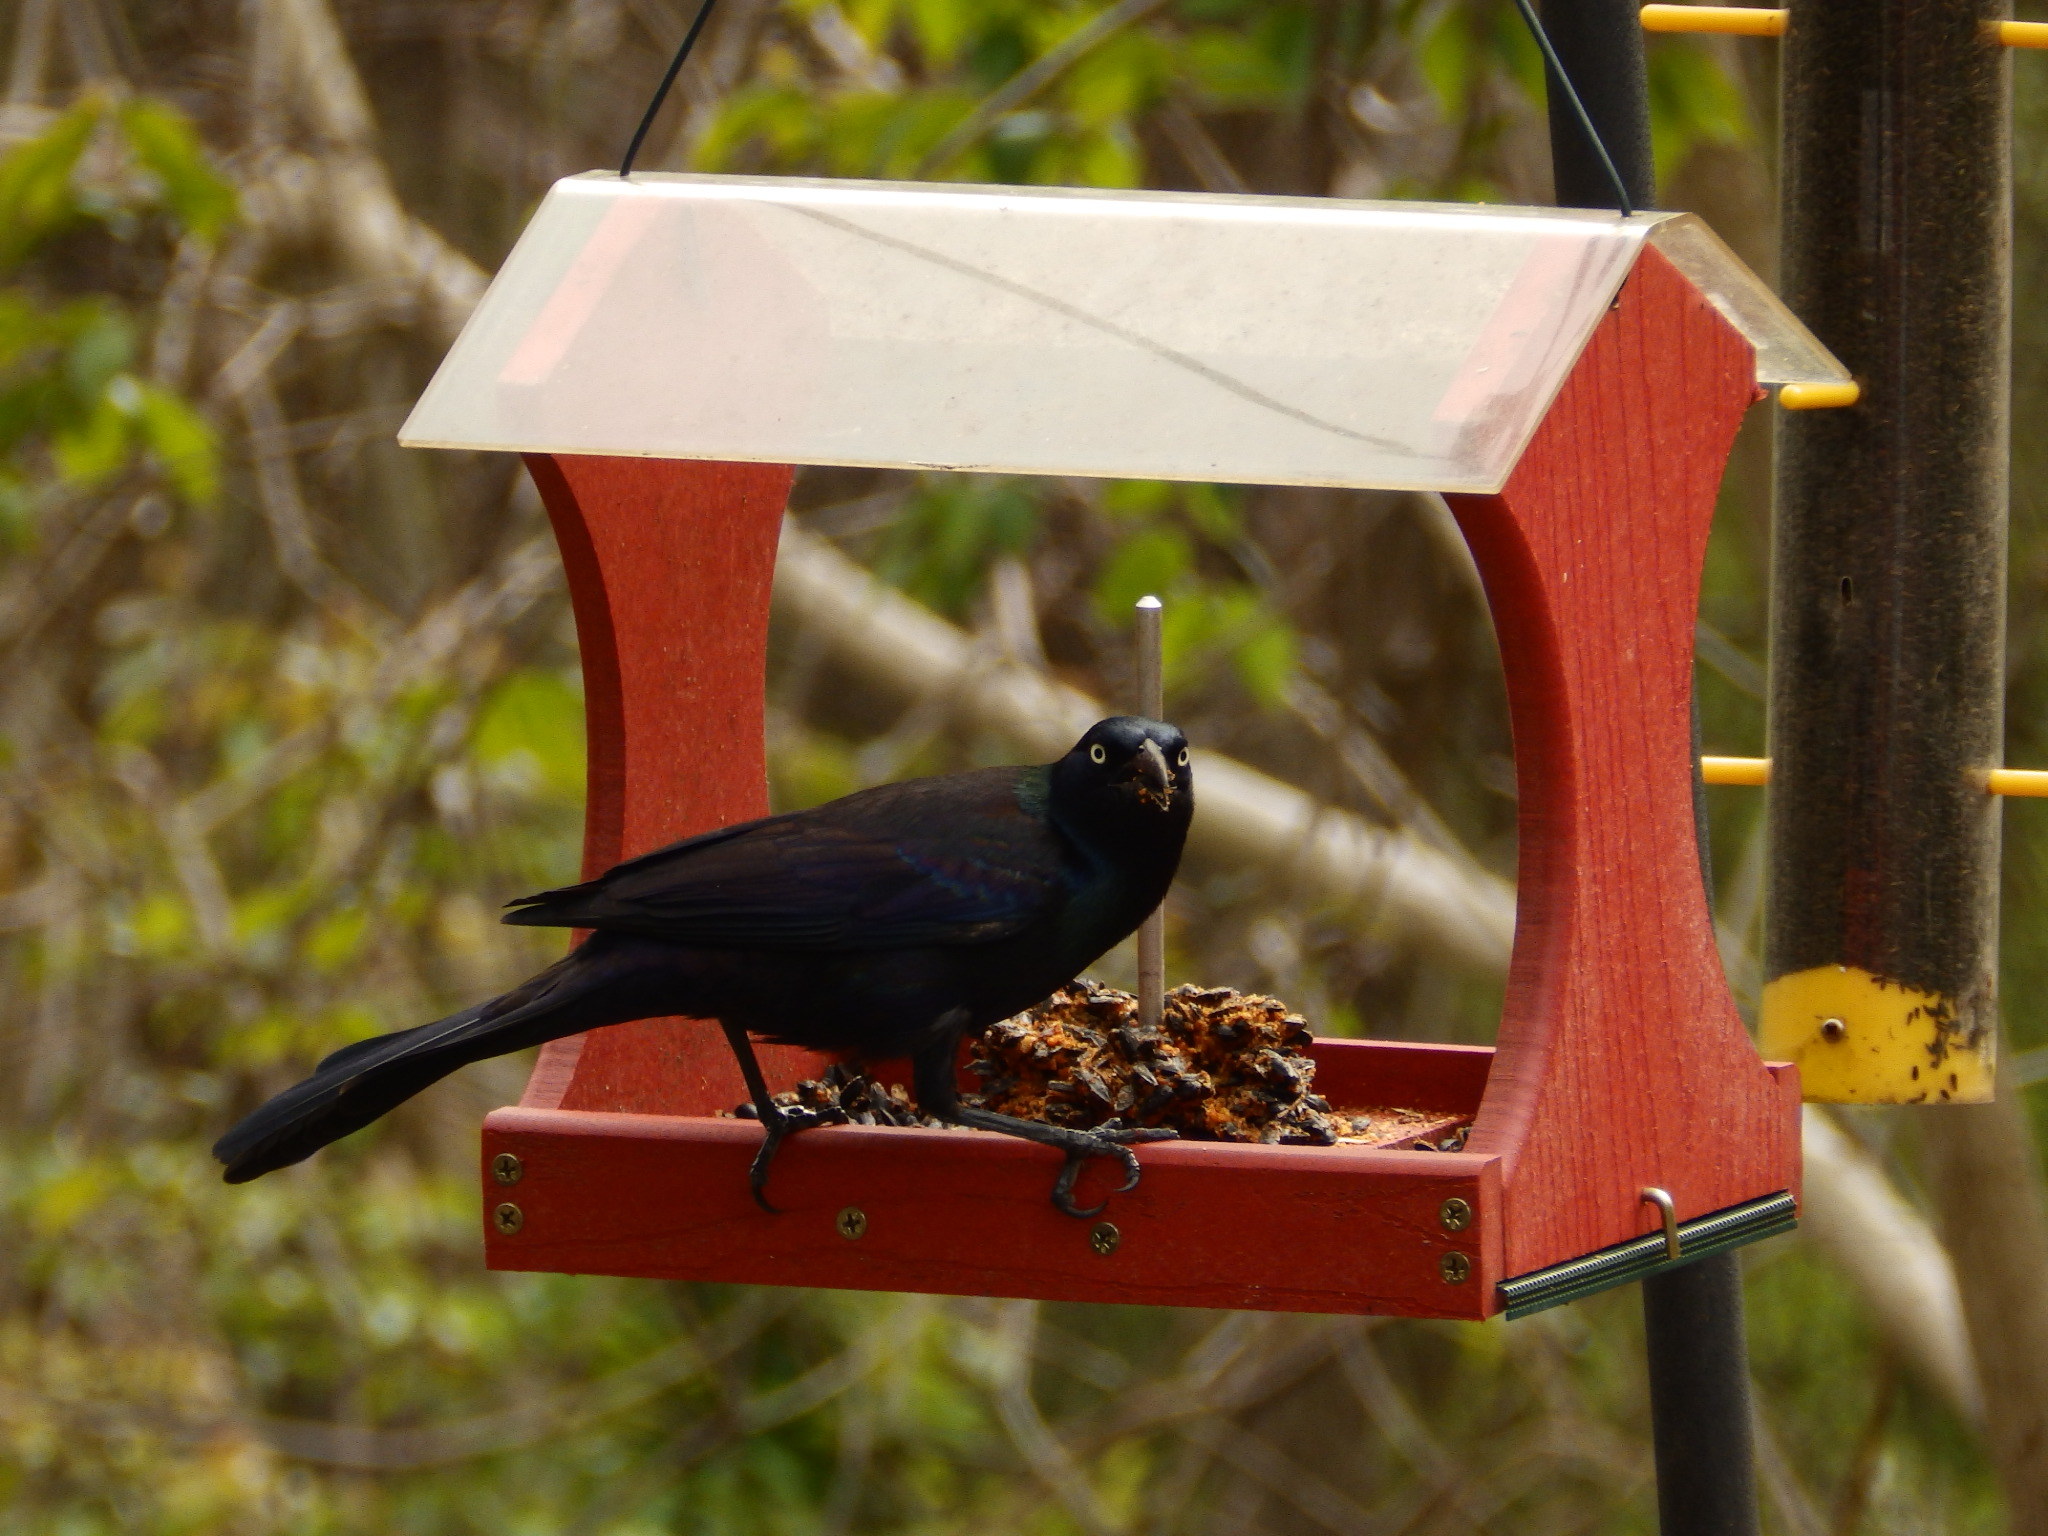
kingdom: Animalia
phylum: Chordata
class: Aves
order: Passeriformes
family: Icteridae
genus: Quiscalus
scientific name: Quiscalus quiscula
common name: Common grackle
